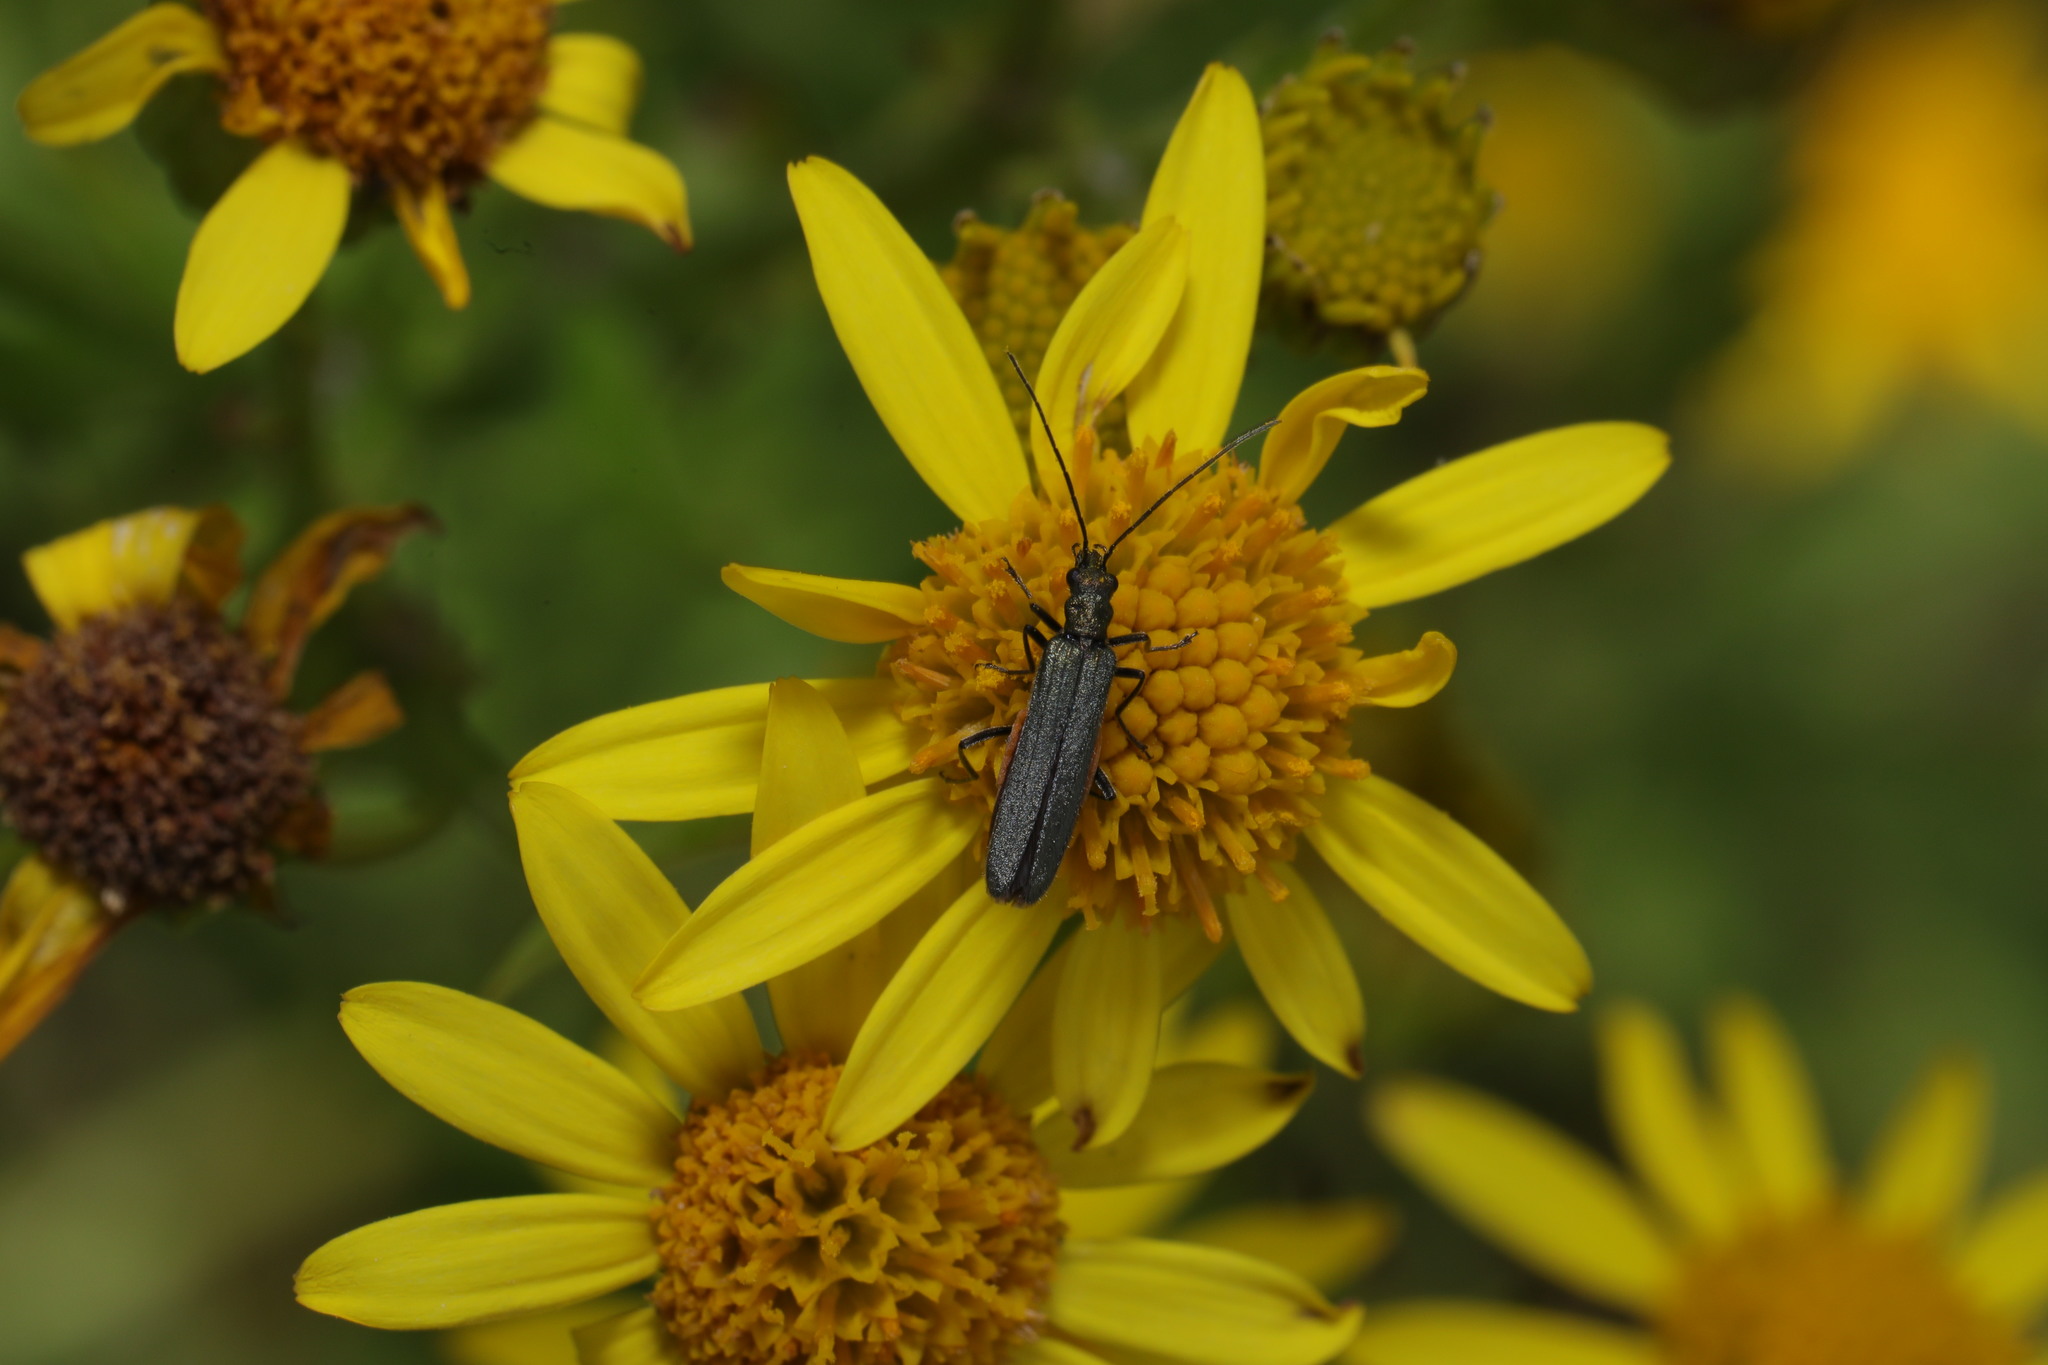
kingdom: Animalia
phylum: Arthropoda
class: Insecta
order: Coleoptera
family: Oedemeridae
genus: Oedemera
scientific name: Oedemera lurida
